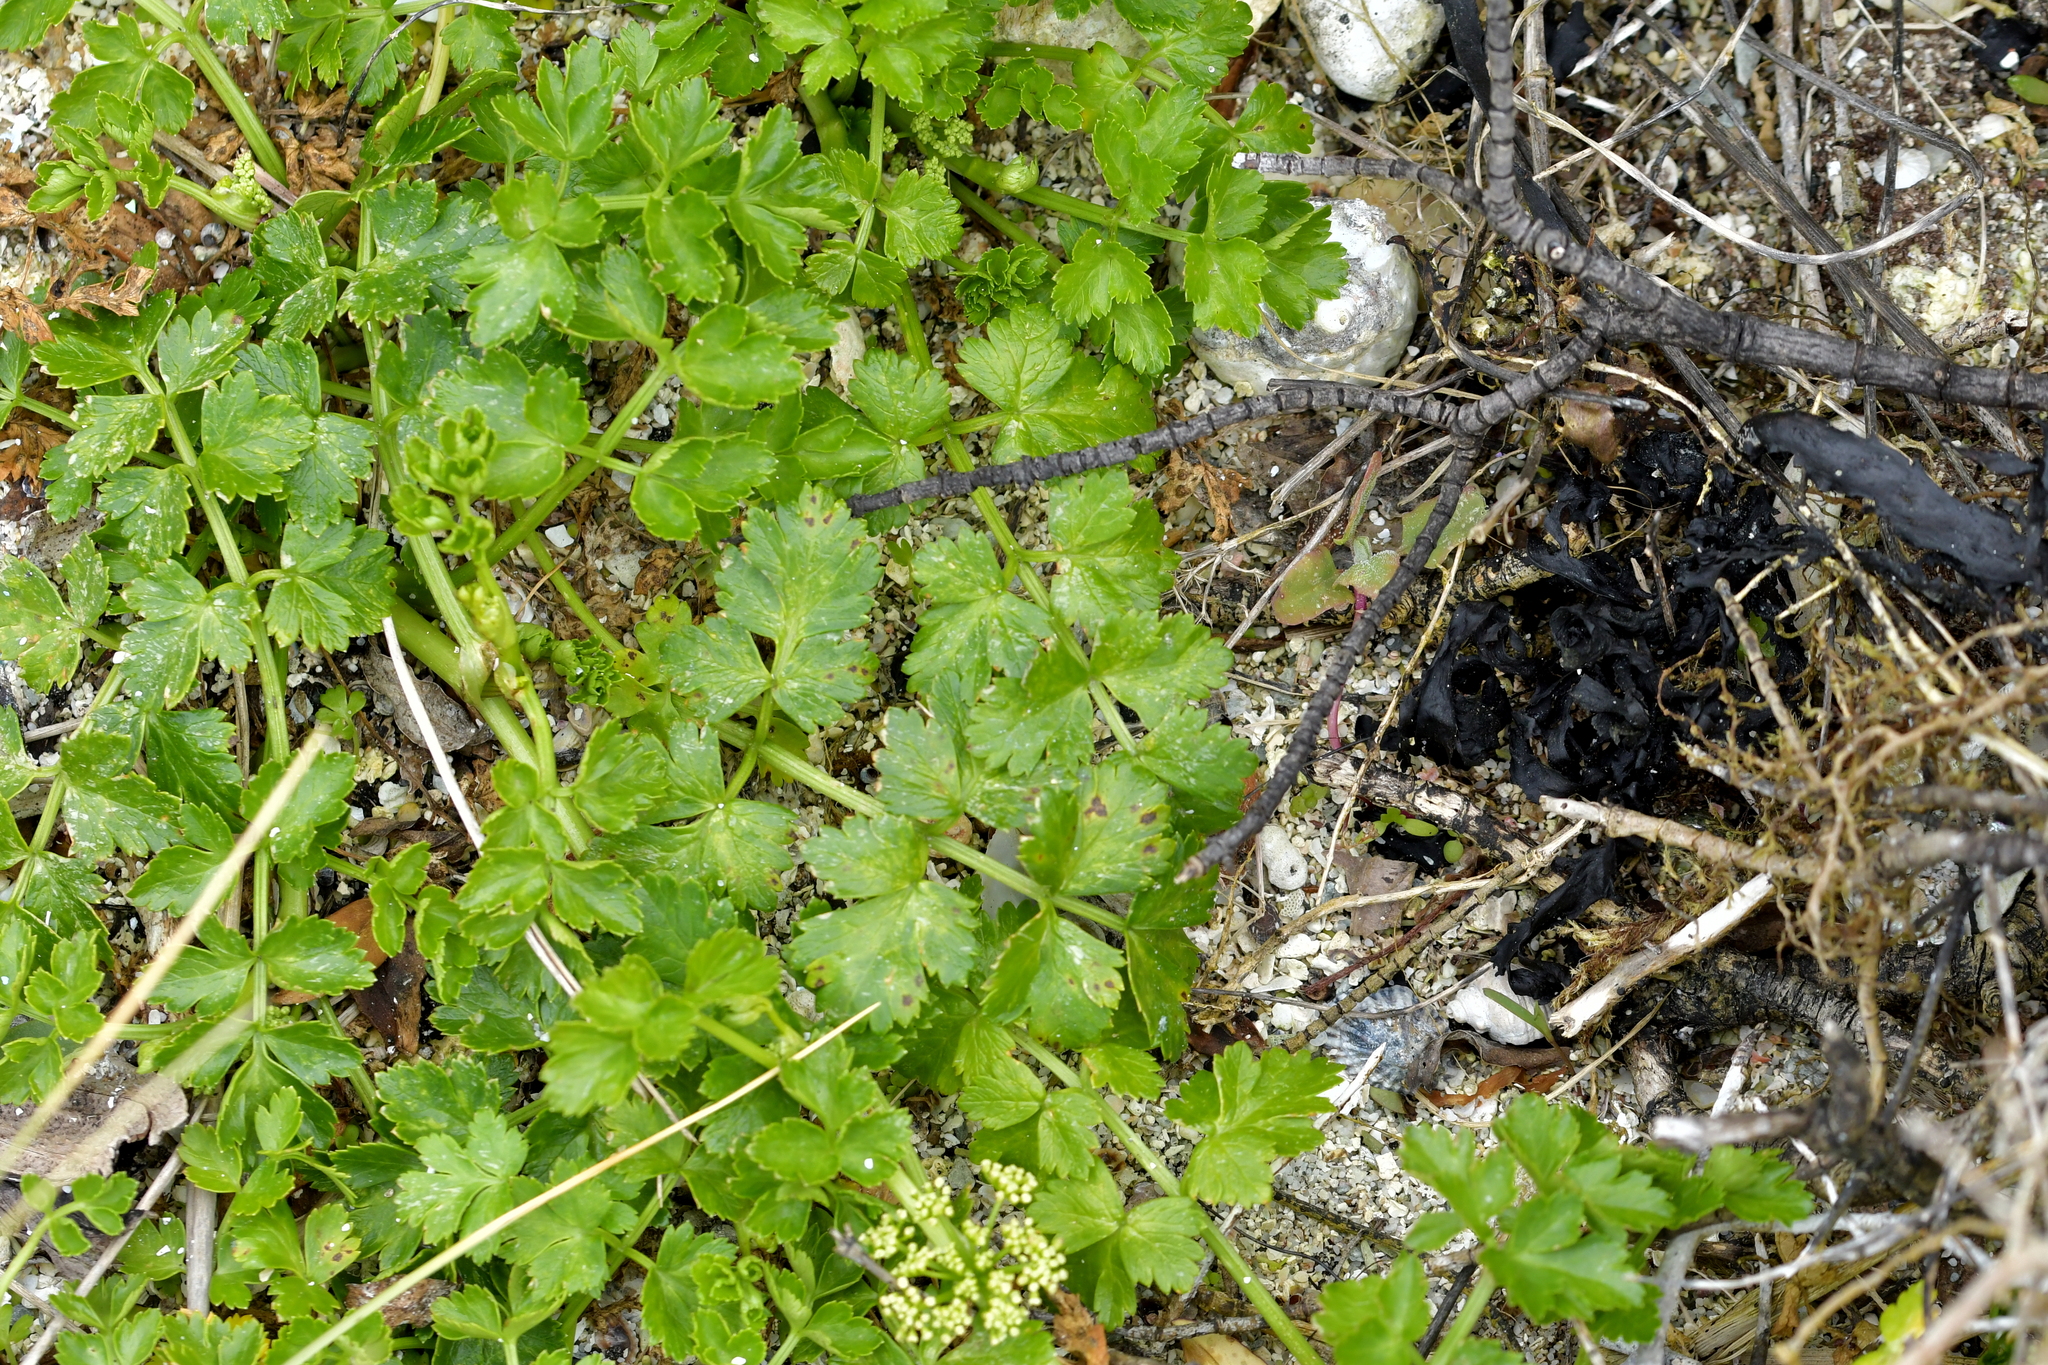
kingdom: Plantae
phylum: Tracheophyta
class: Magnoliopsida
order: Apiales
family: Apiaceae
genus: Apium
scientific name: Apium prostratum
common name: Prostrate marshwort
